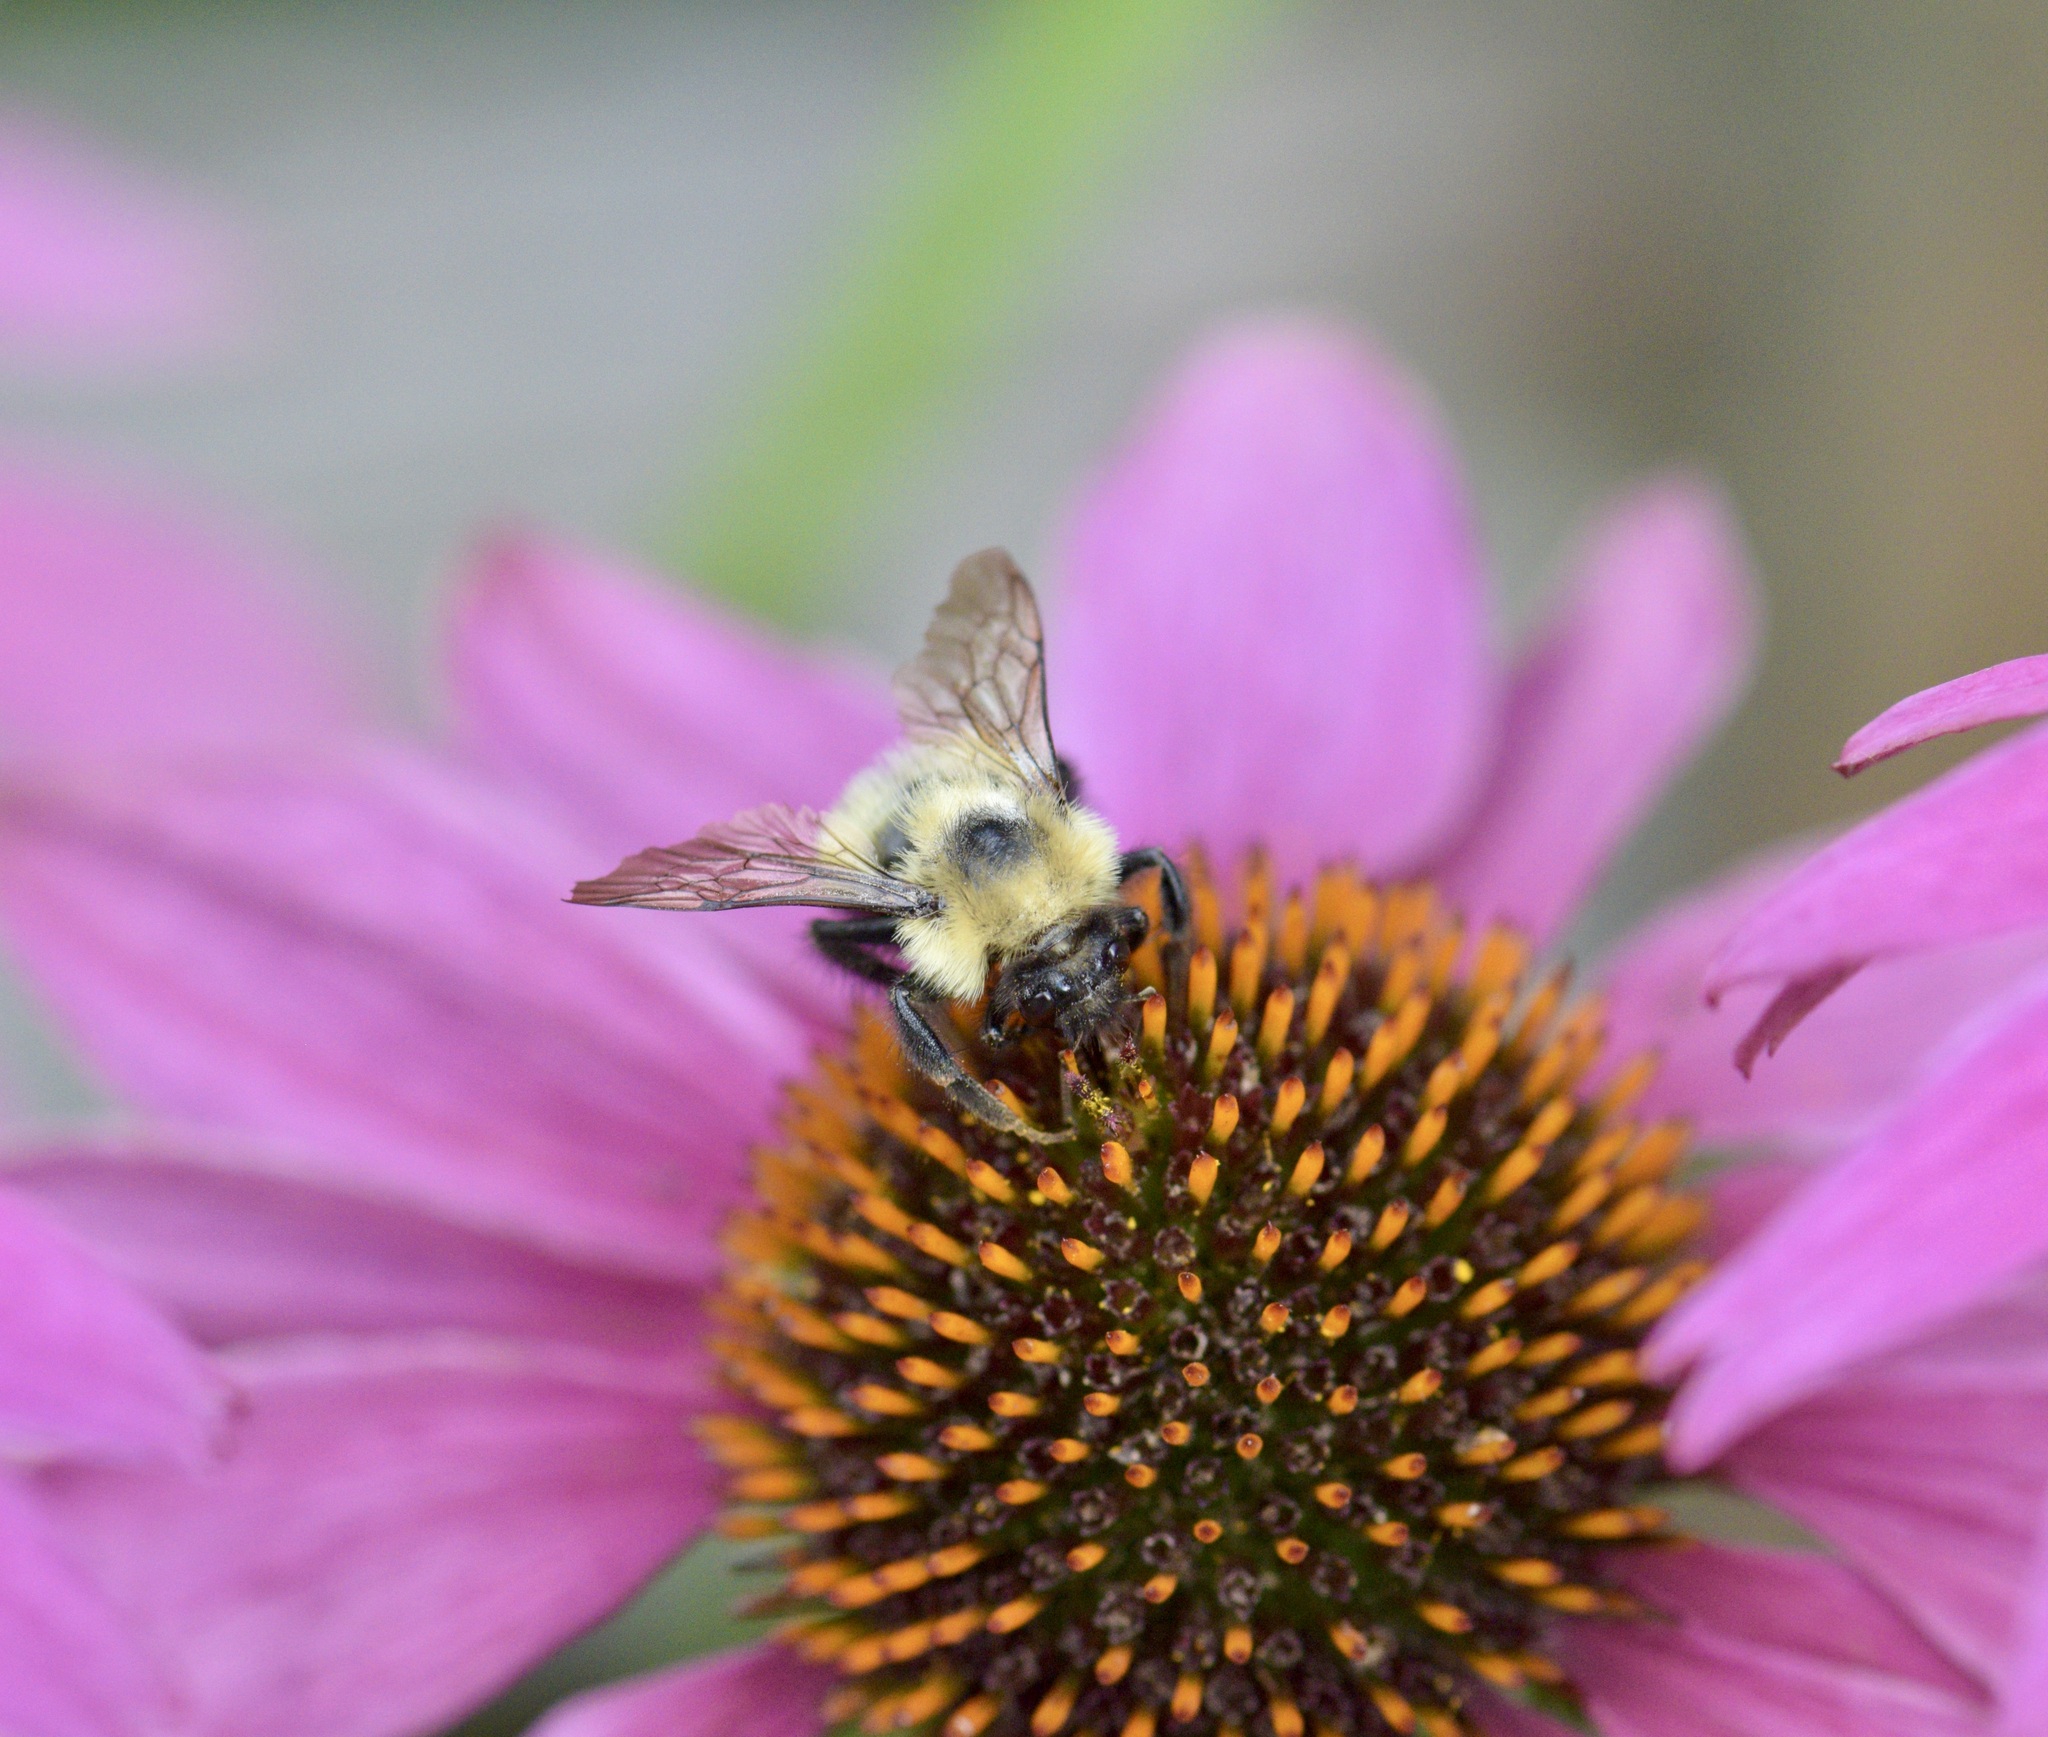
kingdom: Animalia
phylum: Arthropoda
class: Insecta
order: Hymenoptera
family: Apidae
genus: Bombus
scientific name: Bombus vagans
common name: Half-black bumble bee
